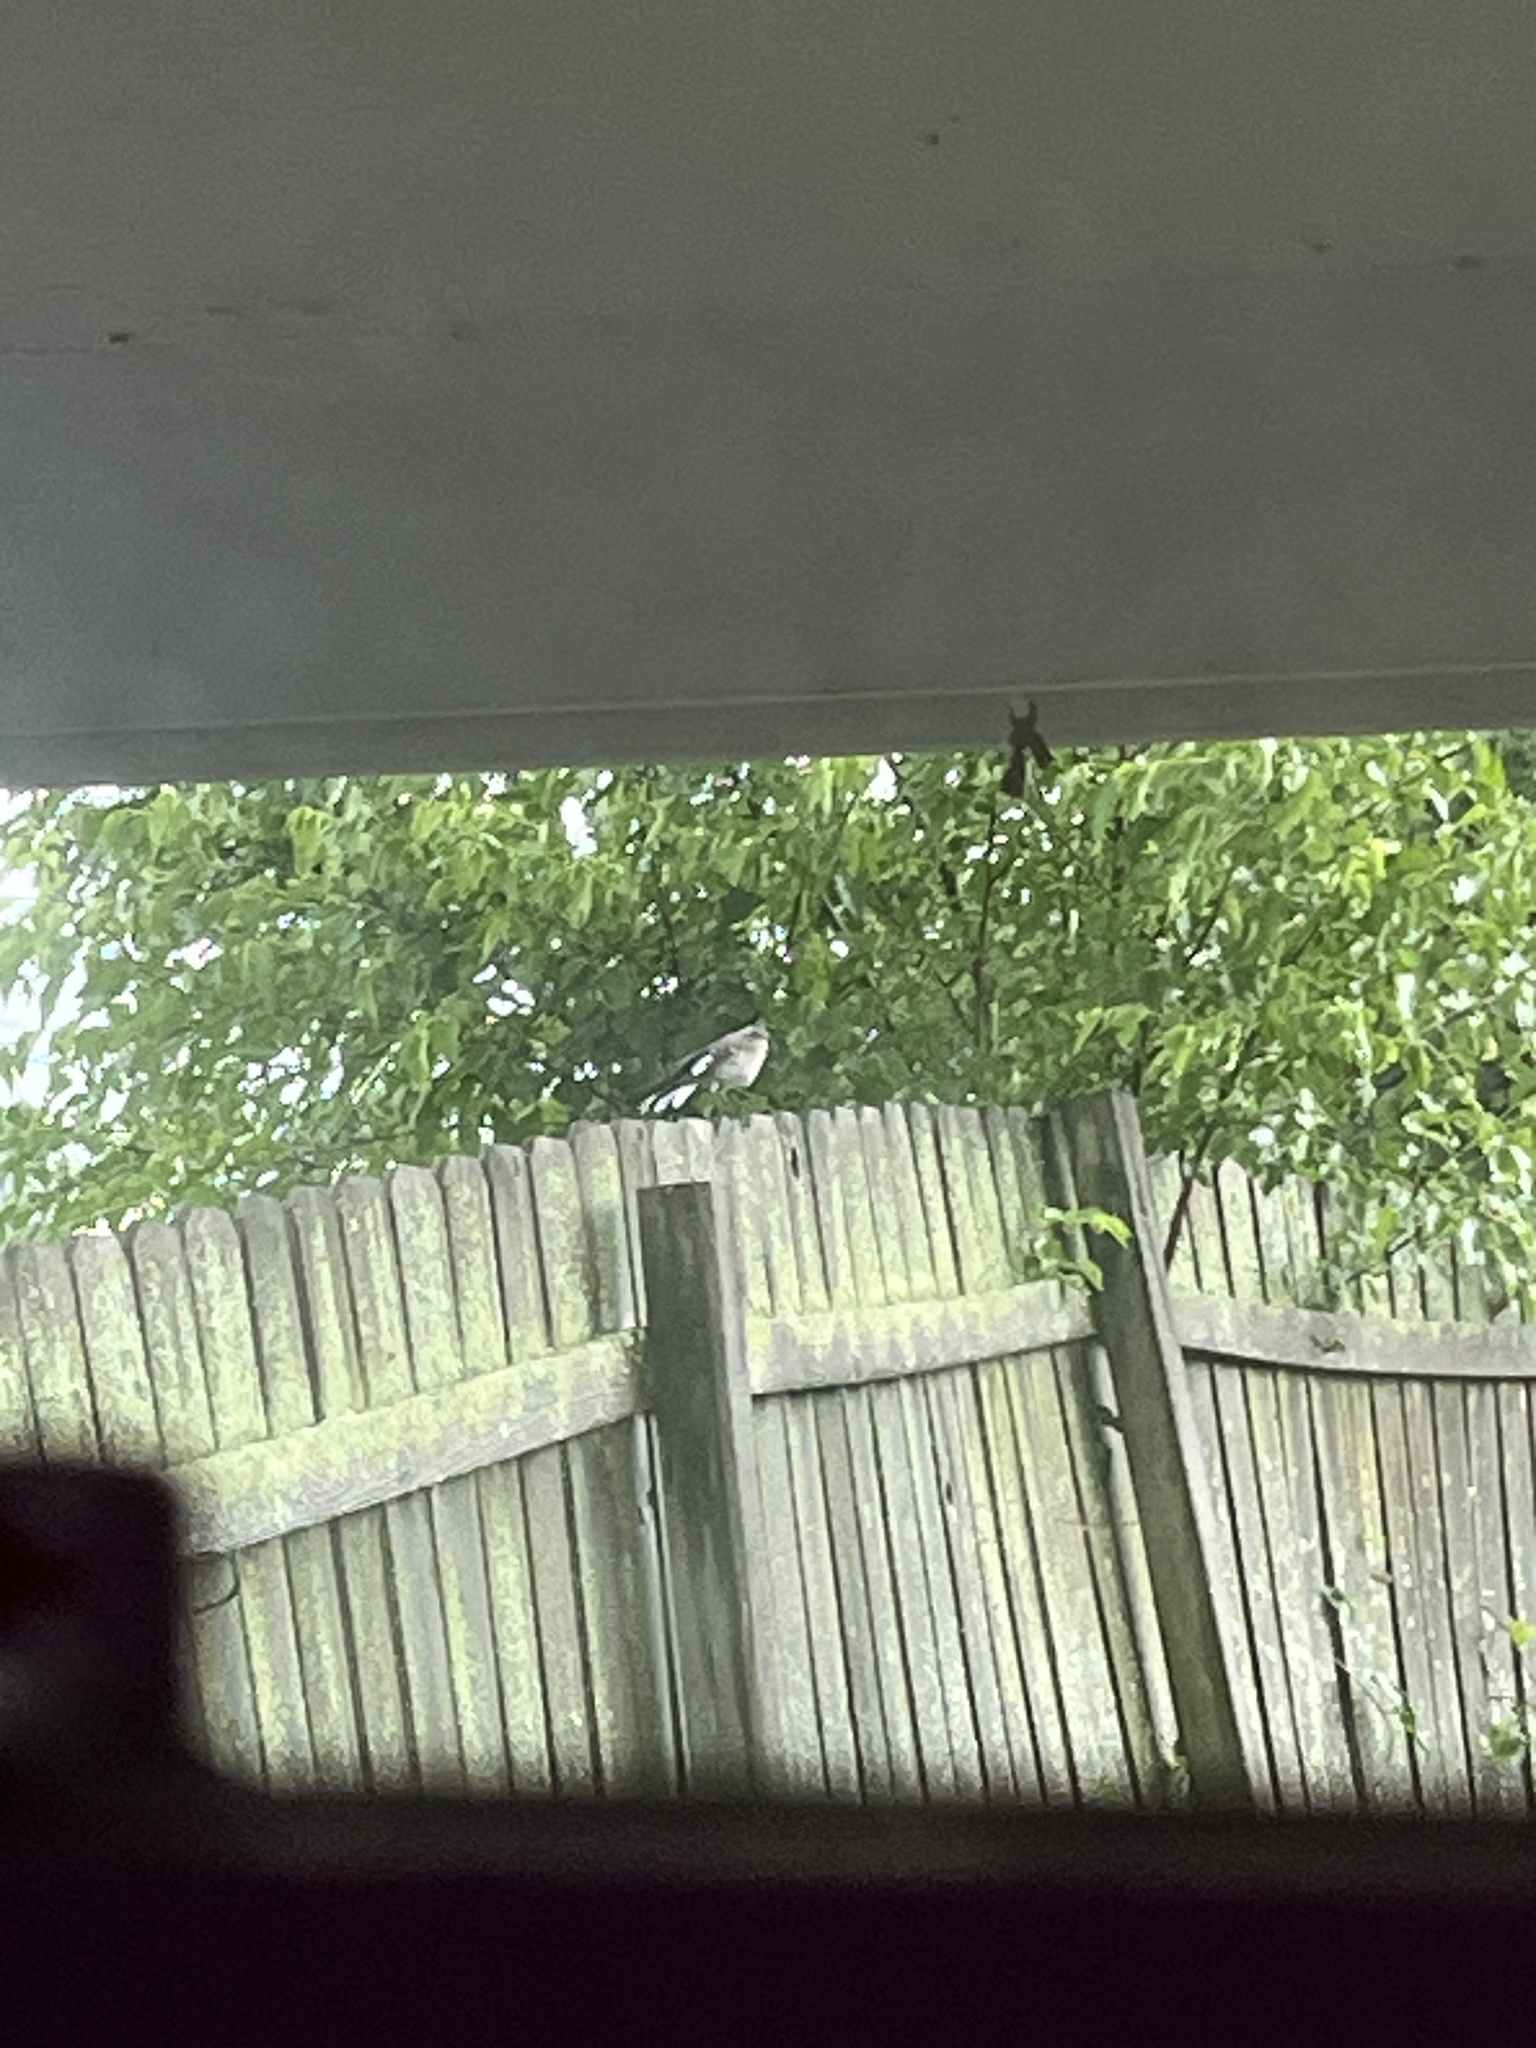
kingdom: Animalia
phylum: Chordata
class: Aves
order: Passeriformes
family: Mimidae
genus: Mimus
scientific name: Mimus polyglottos
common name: Northern mockingbird
